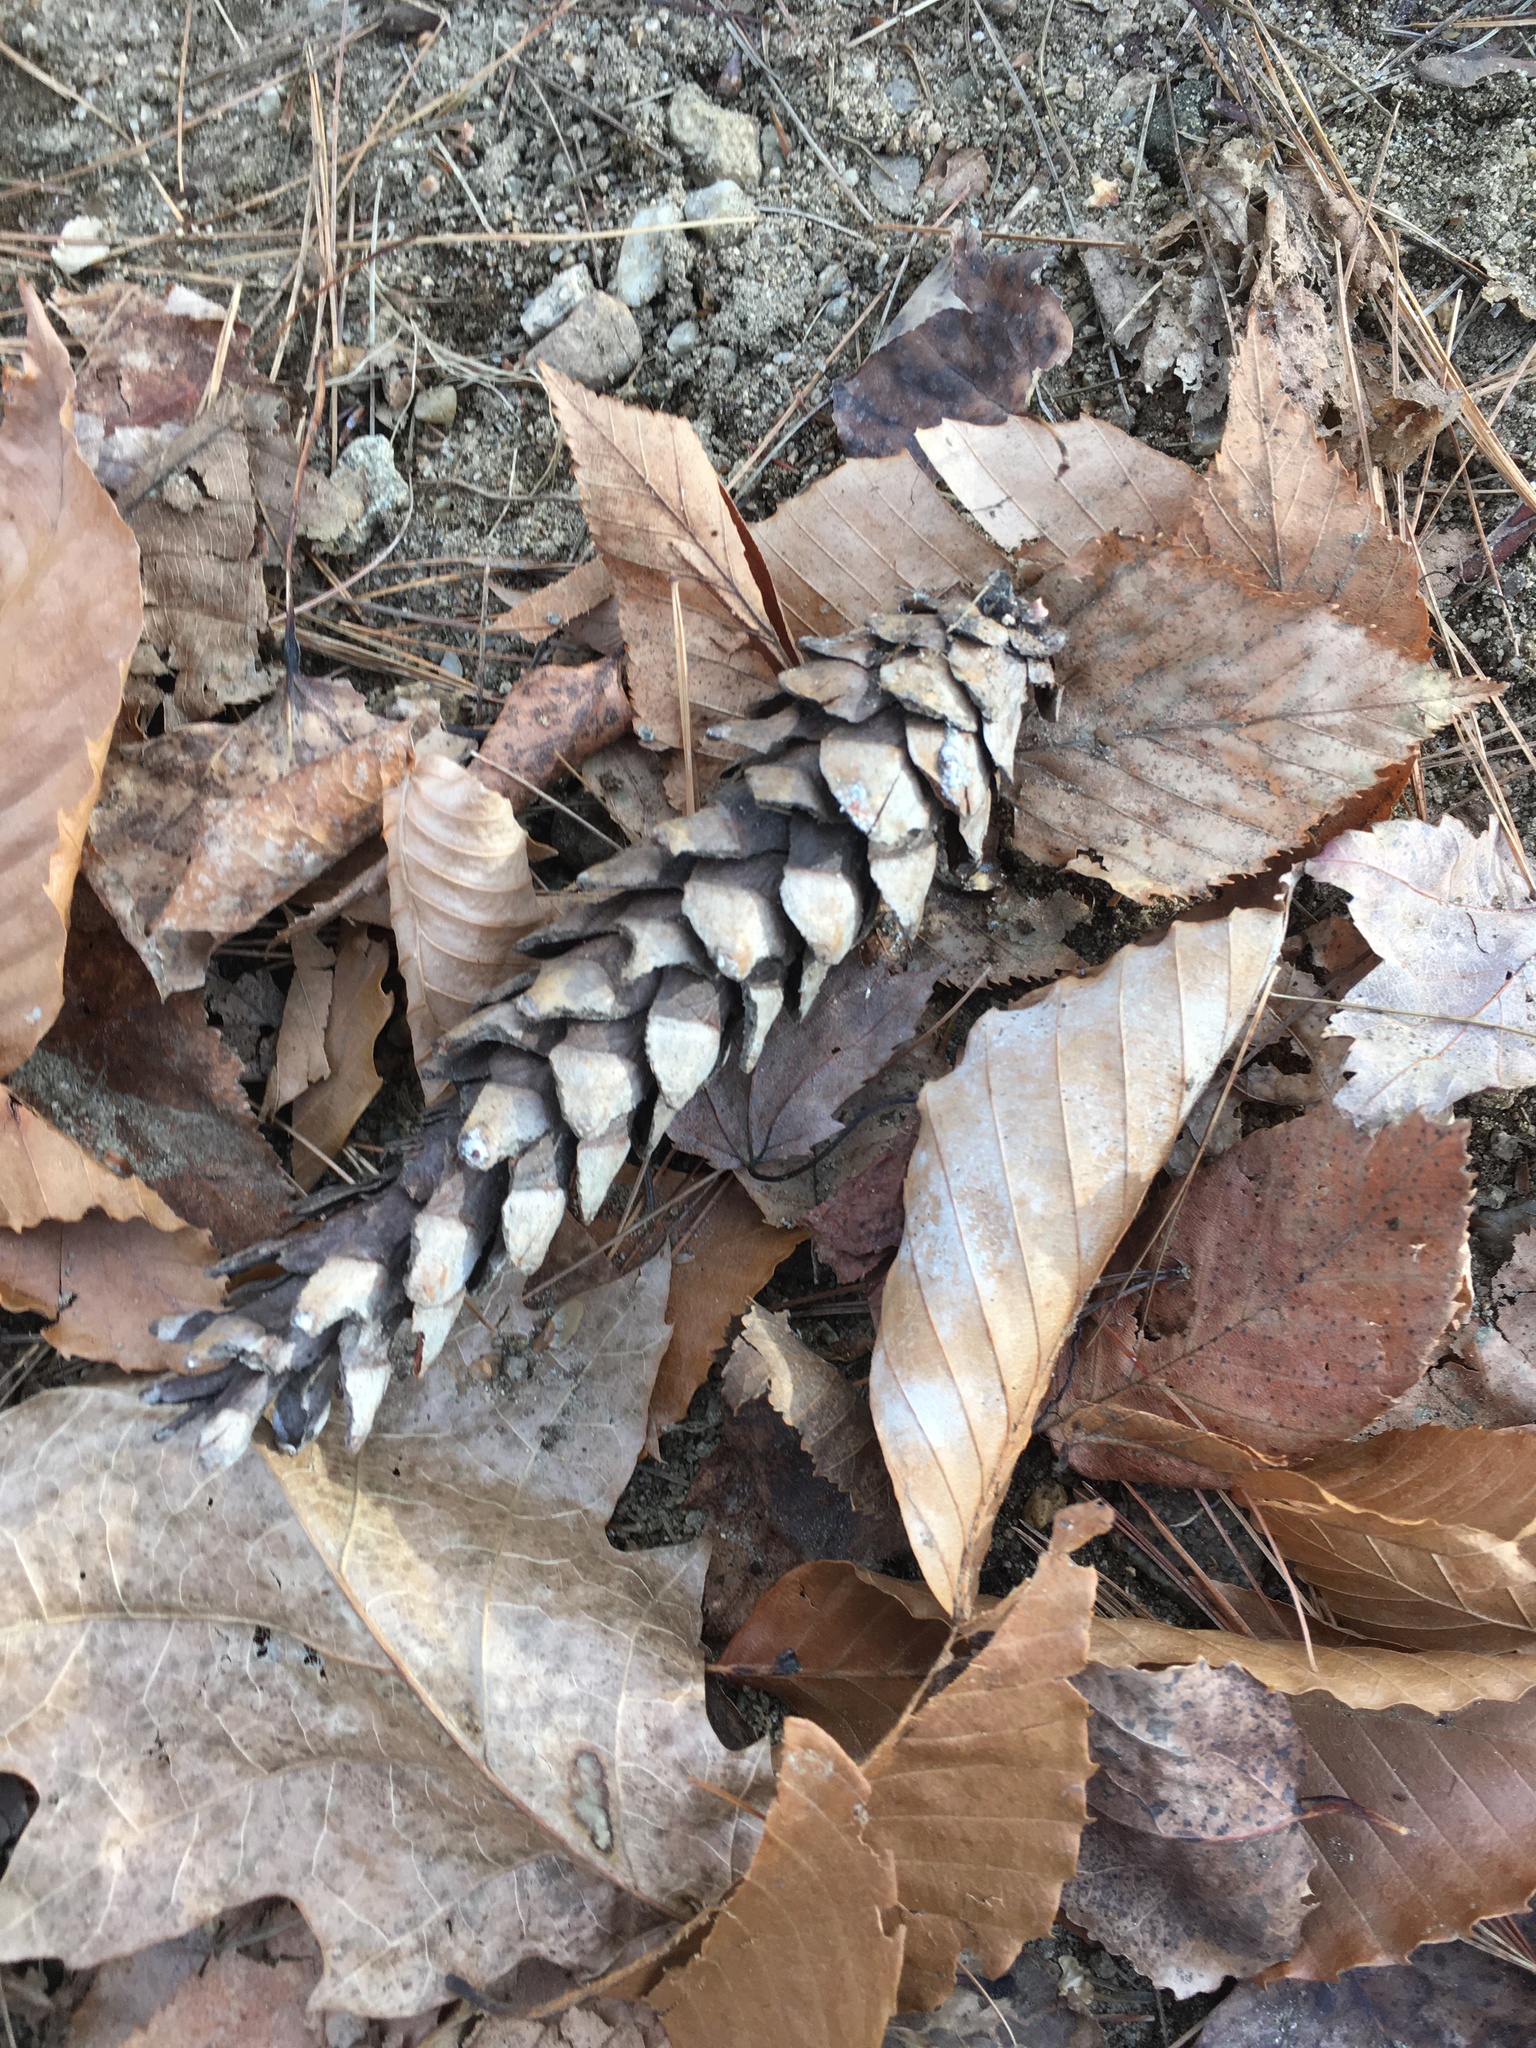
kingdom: Plantae
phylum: Tracheophyta
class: Pinopsida
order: Pinales
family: Pinaceae
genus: Pinus
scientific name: Pinus strobus
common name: Weymouth pine
